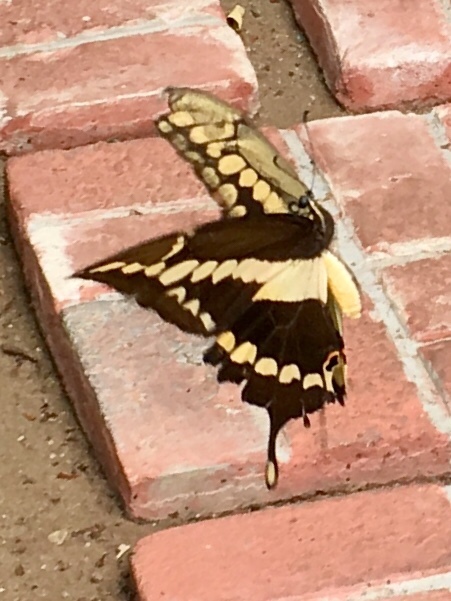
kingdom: Animalia
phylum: Arthropoda
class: Insecta
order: Lepidoptera
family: Papilionidae
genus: Papilio
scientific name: Papilio rumiko
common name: Western giant swallowtail
